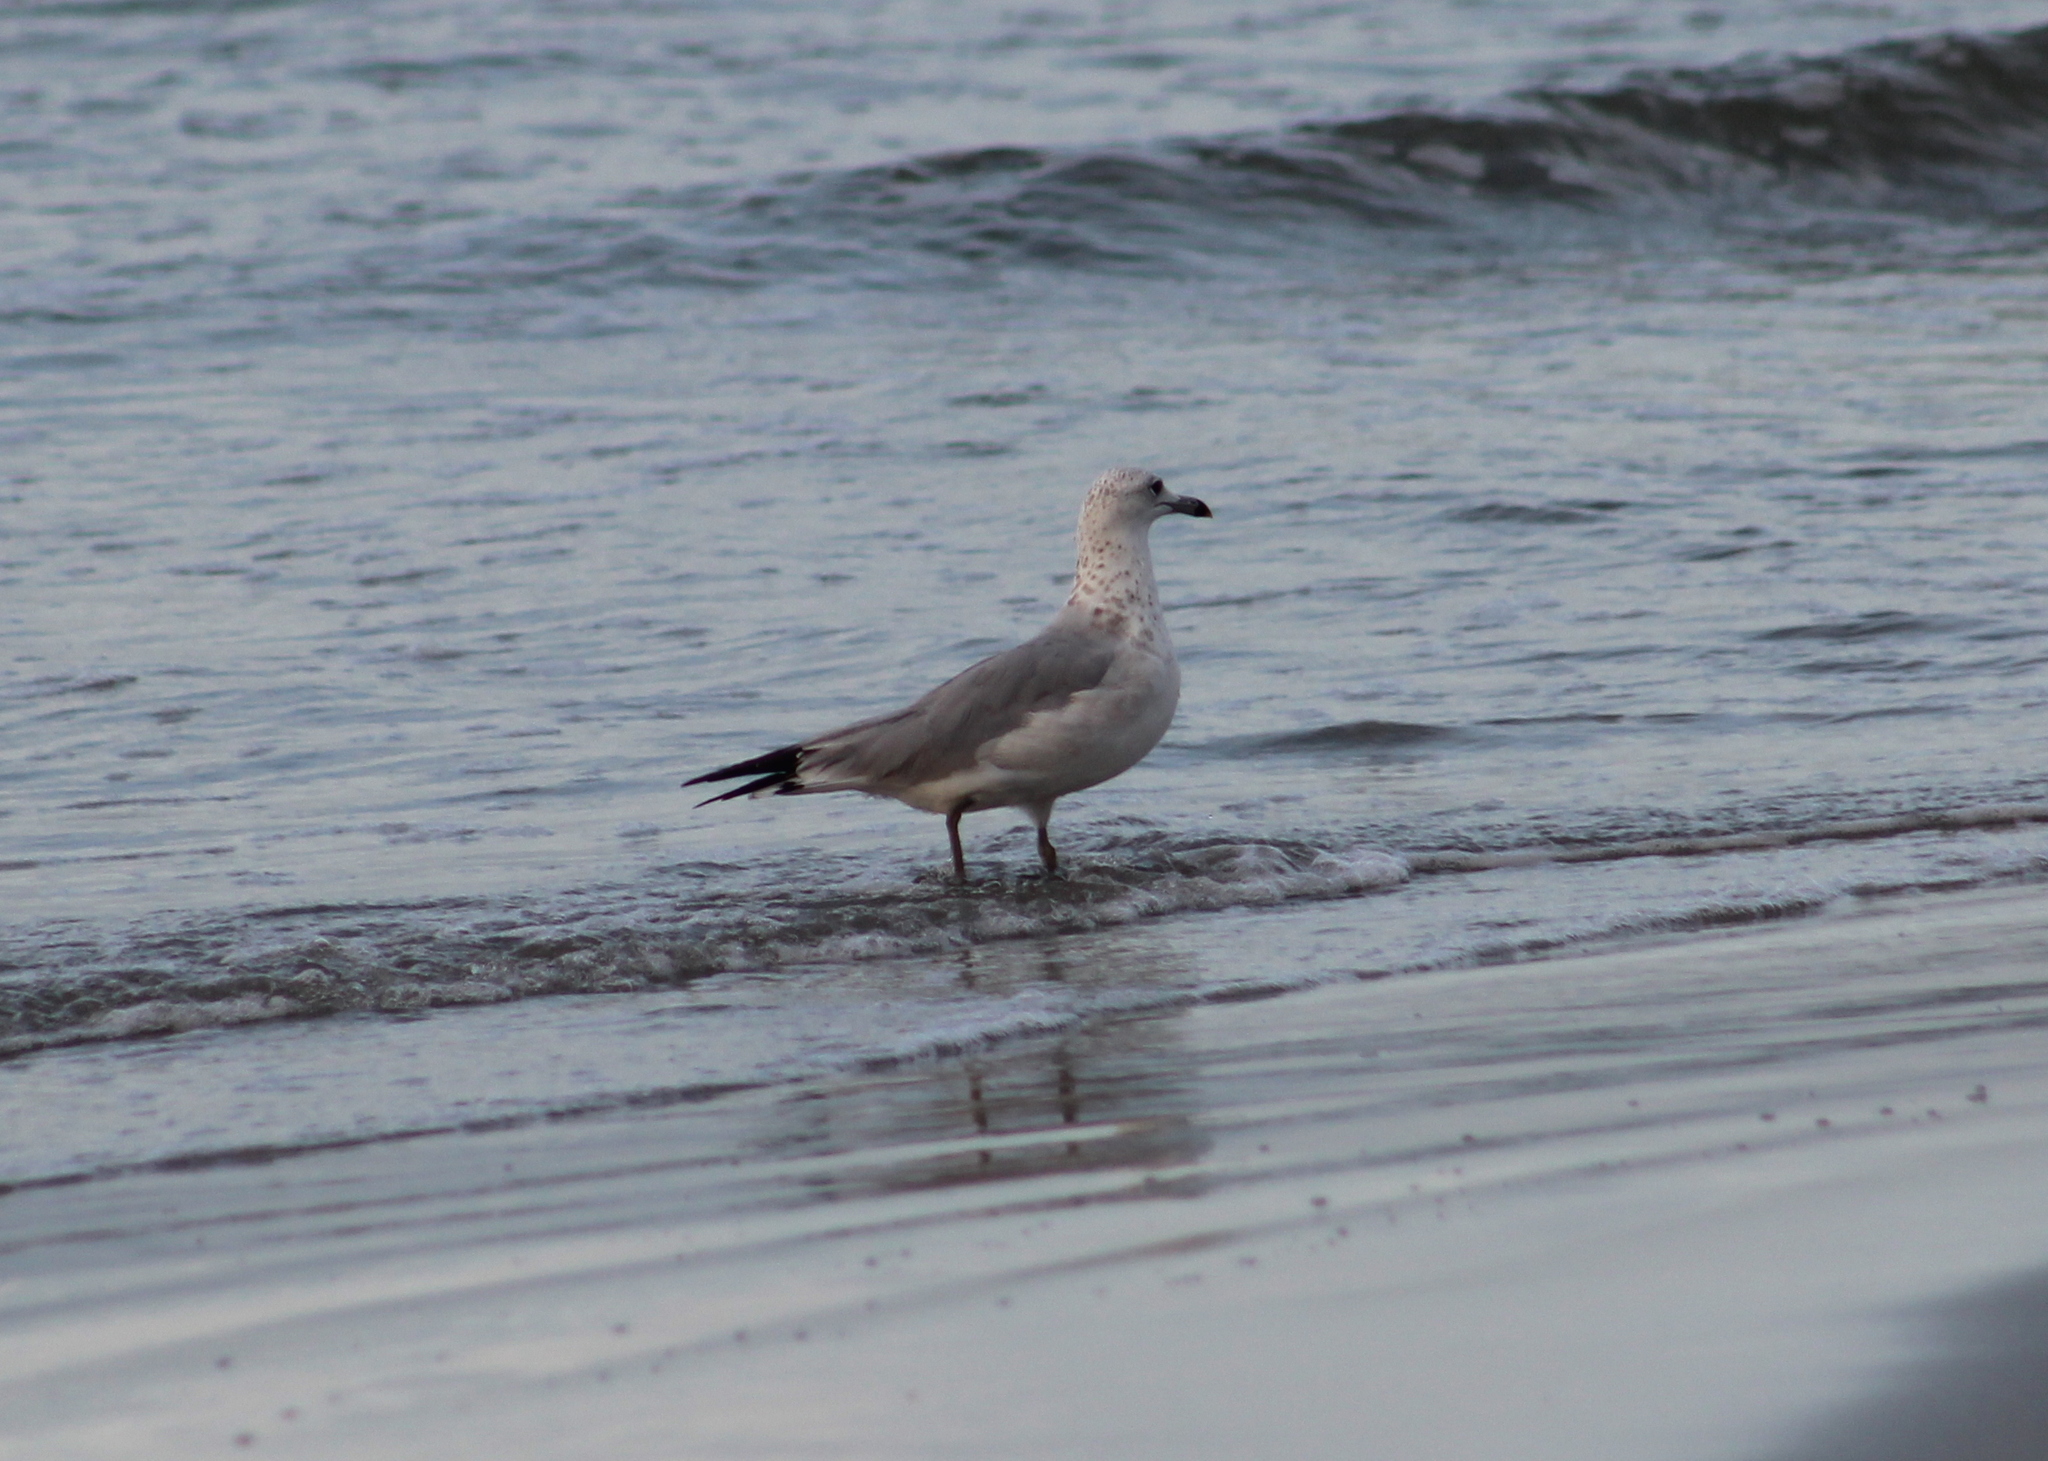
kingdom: Animalia
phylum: Chordata
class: Aves
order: Charadriiformes
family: Laridae
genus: Larus
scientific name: Larus delawarensis
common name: Ring-billed gull
